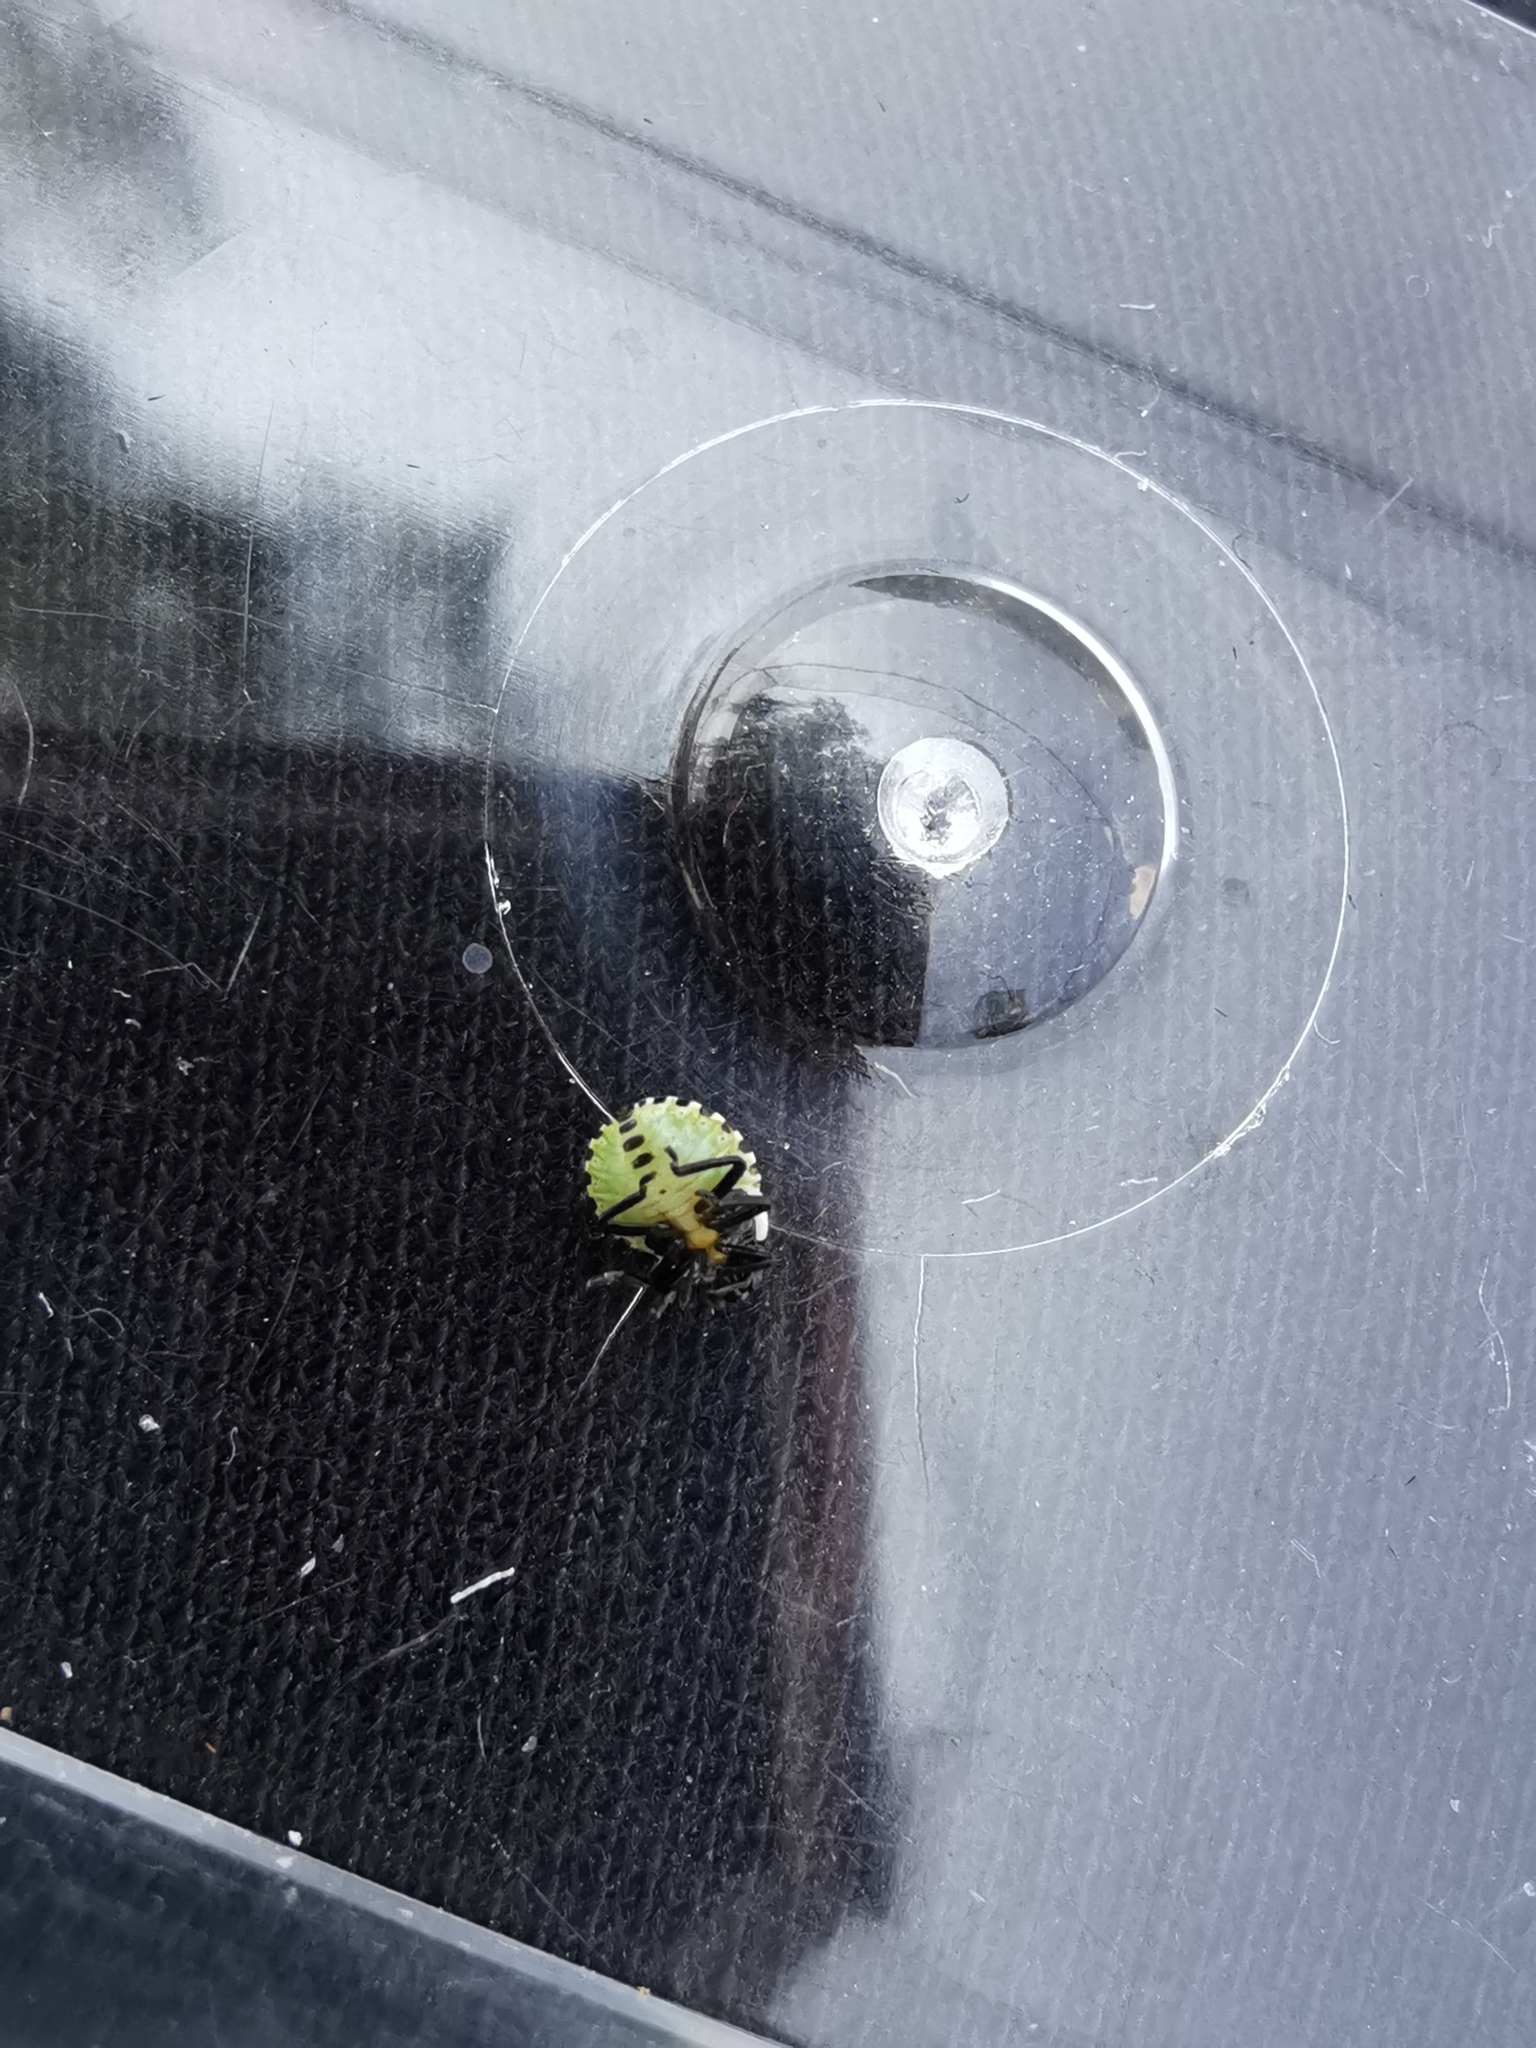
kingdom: Animalia
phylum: Arthropoda
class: Insecta
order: Hemiptera
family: Pentatomidae
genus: Palomena
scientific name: Palomena prasina
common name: Green shieldbug
